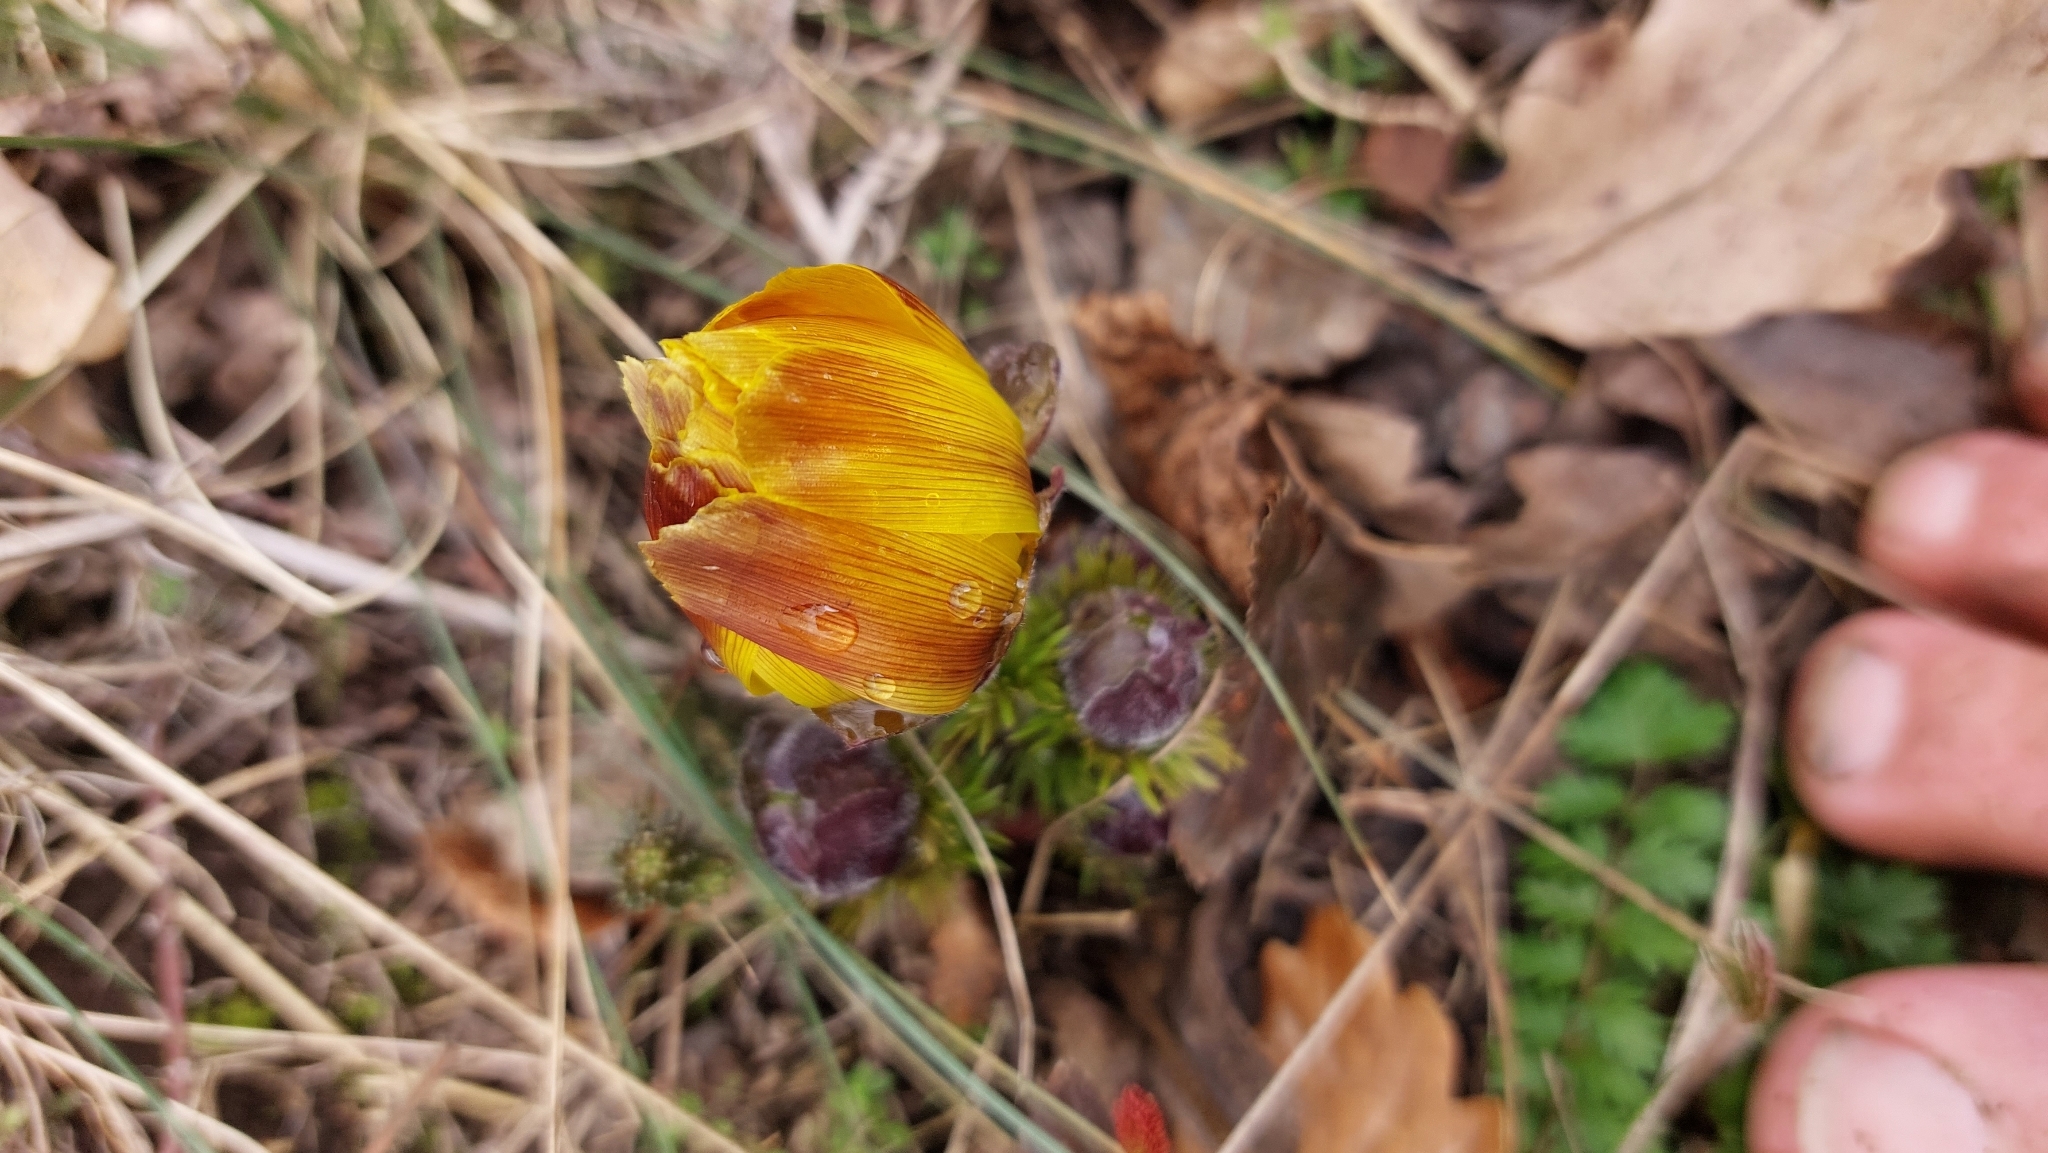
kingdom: Plantae
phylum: Tracheophyta
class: Magnoliopsida
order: Ranunculales
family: Ranunculaceae
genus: Adonis
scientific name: Adonis vernalis
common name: Yellow pheasants-eye
